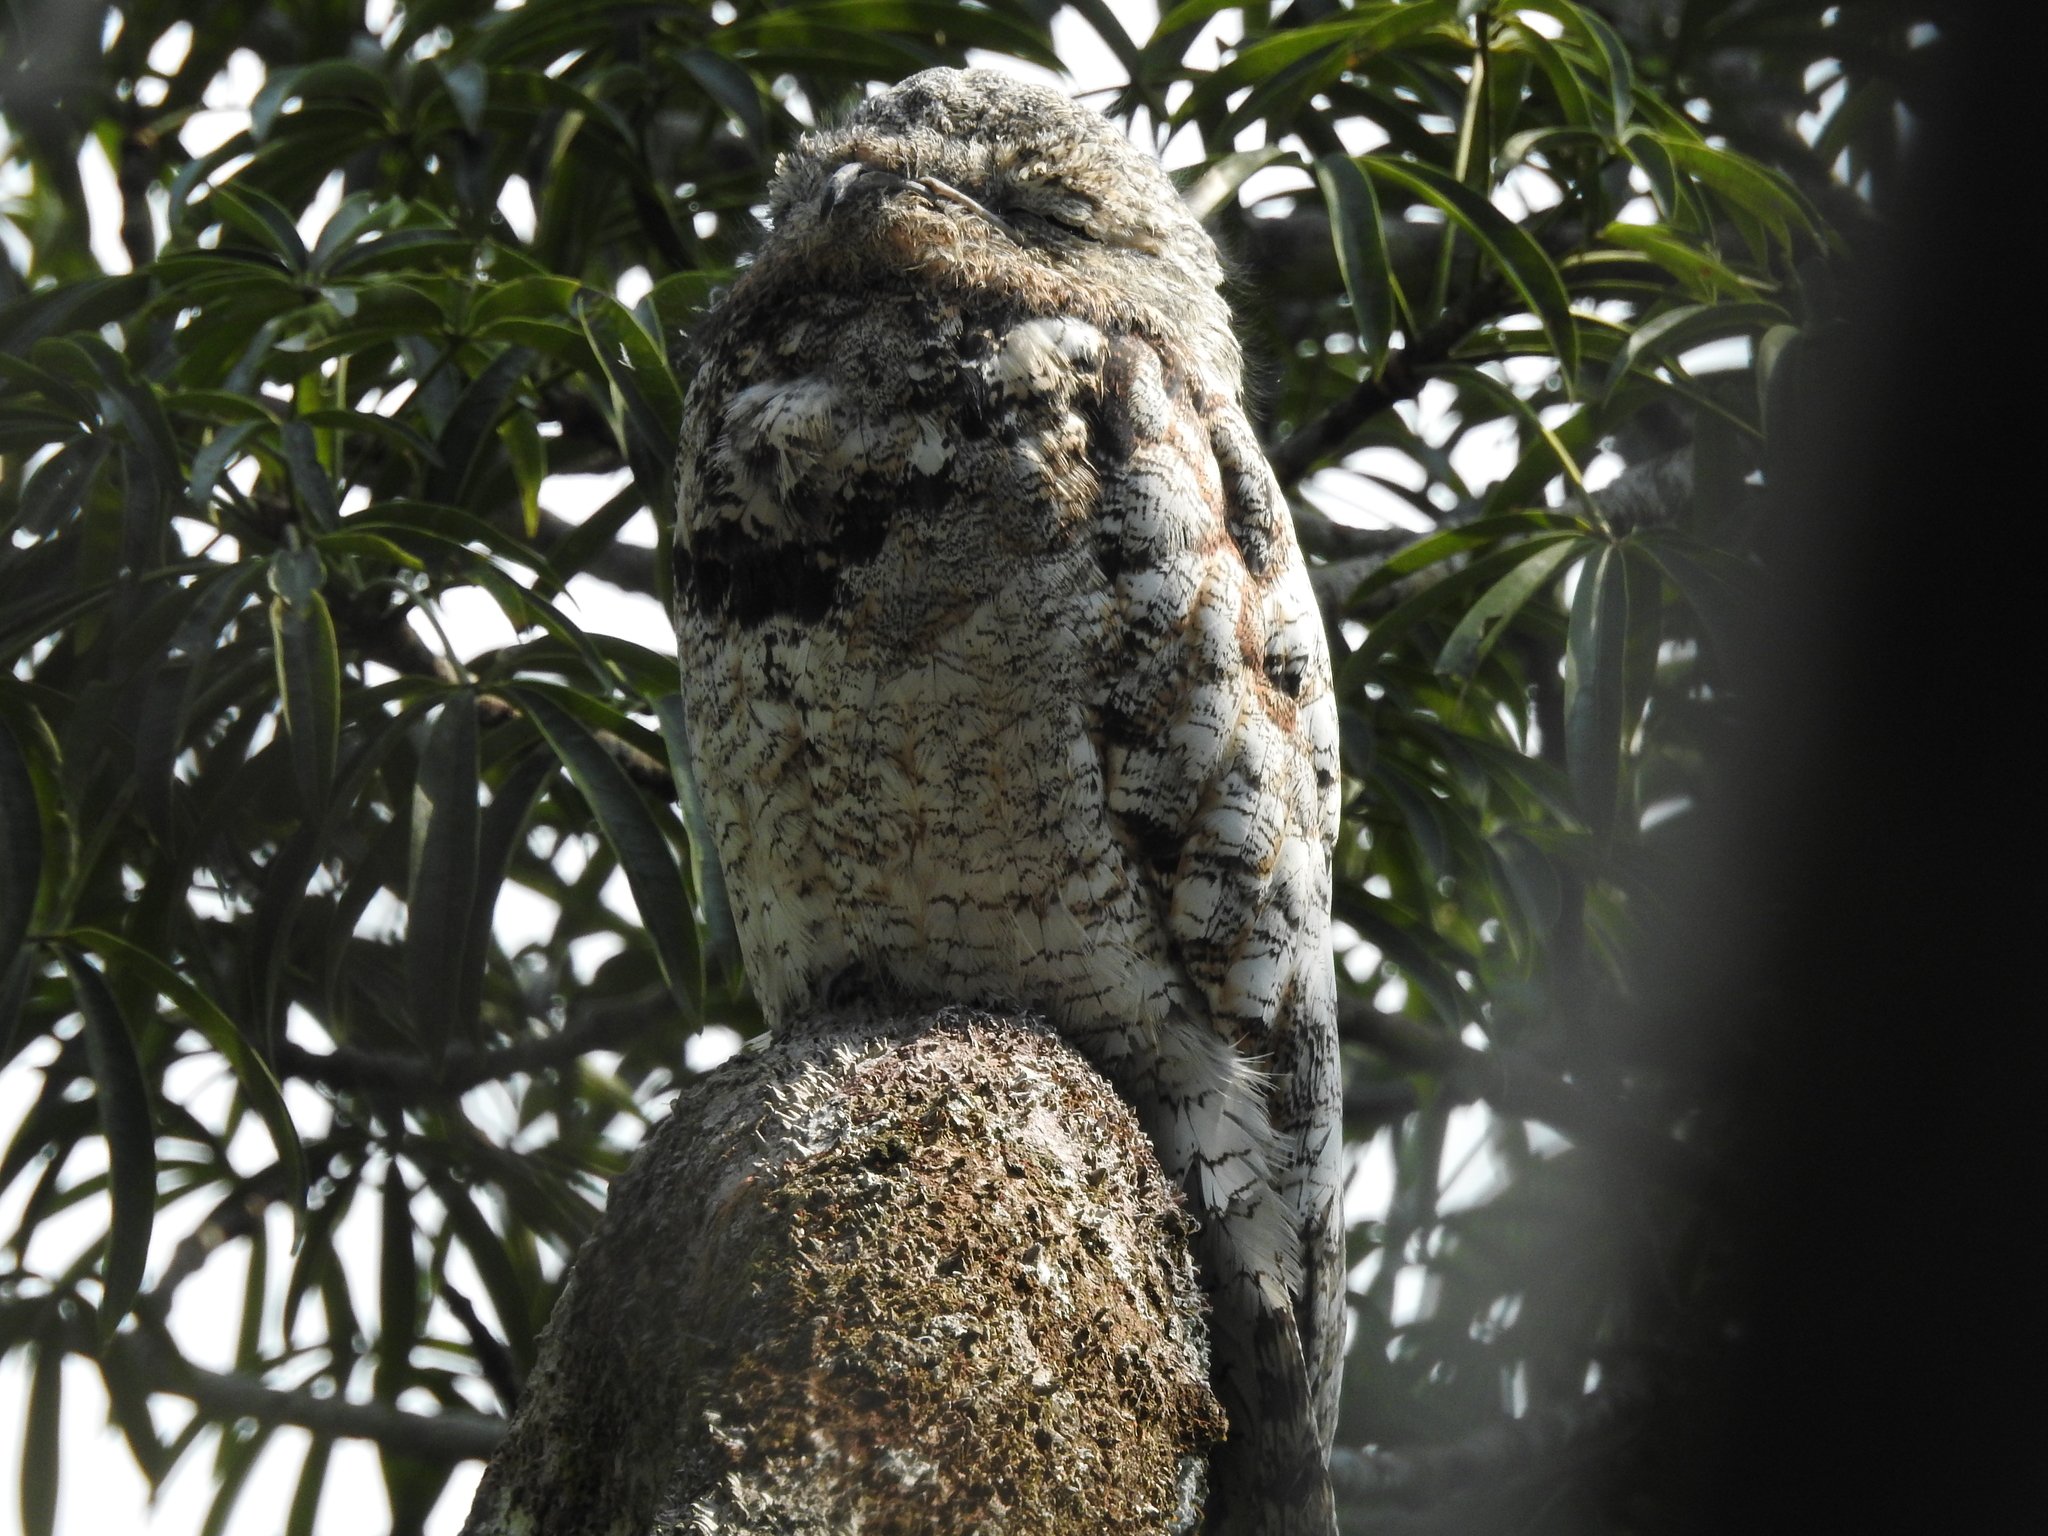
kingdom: Animalia
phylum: Chordata
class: Aves
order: Nyctibiiformes
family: Nyctibiidae
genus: Nyctibius
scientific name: Nyctibius grandis
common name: Great potoo
